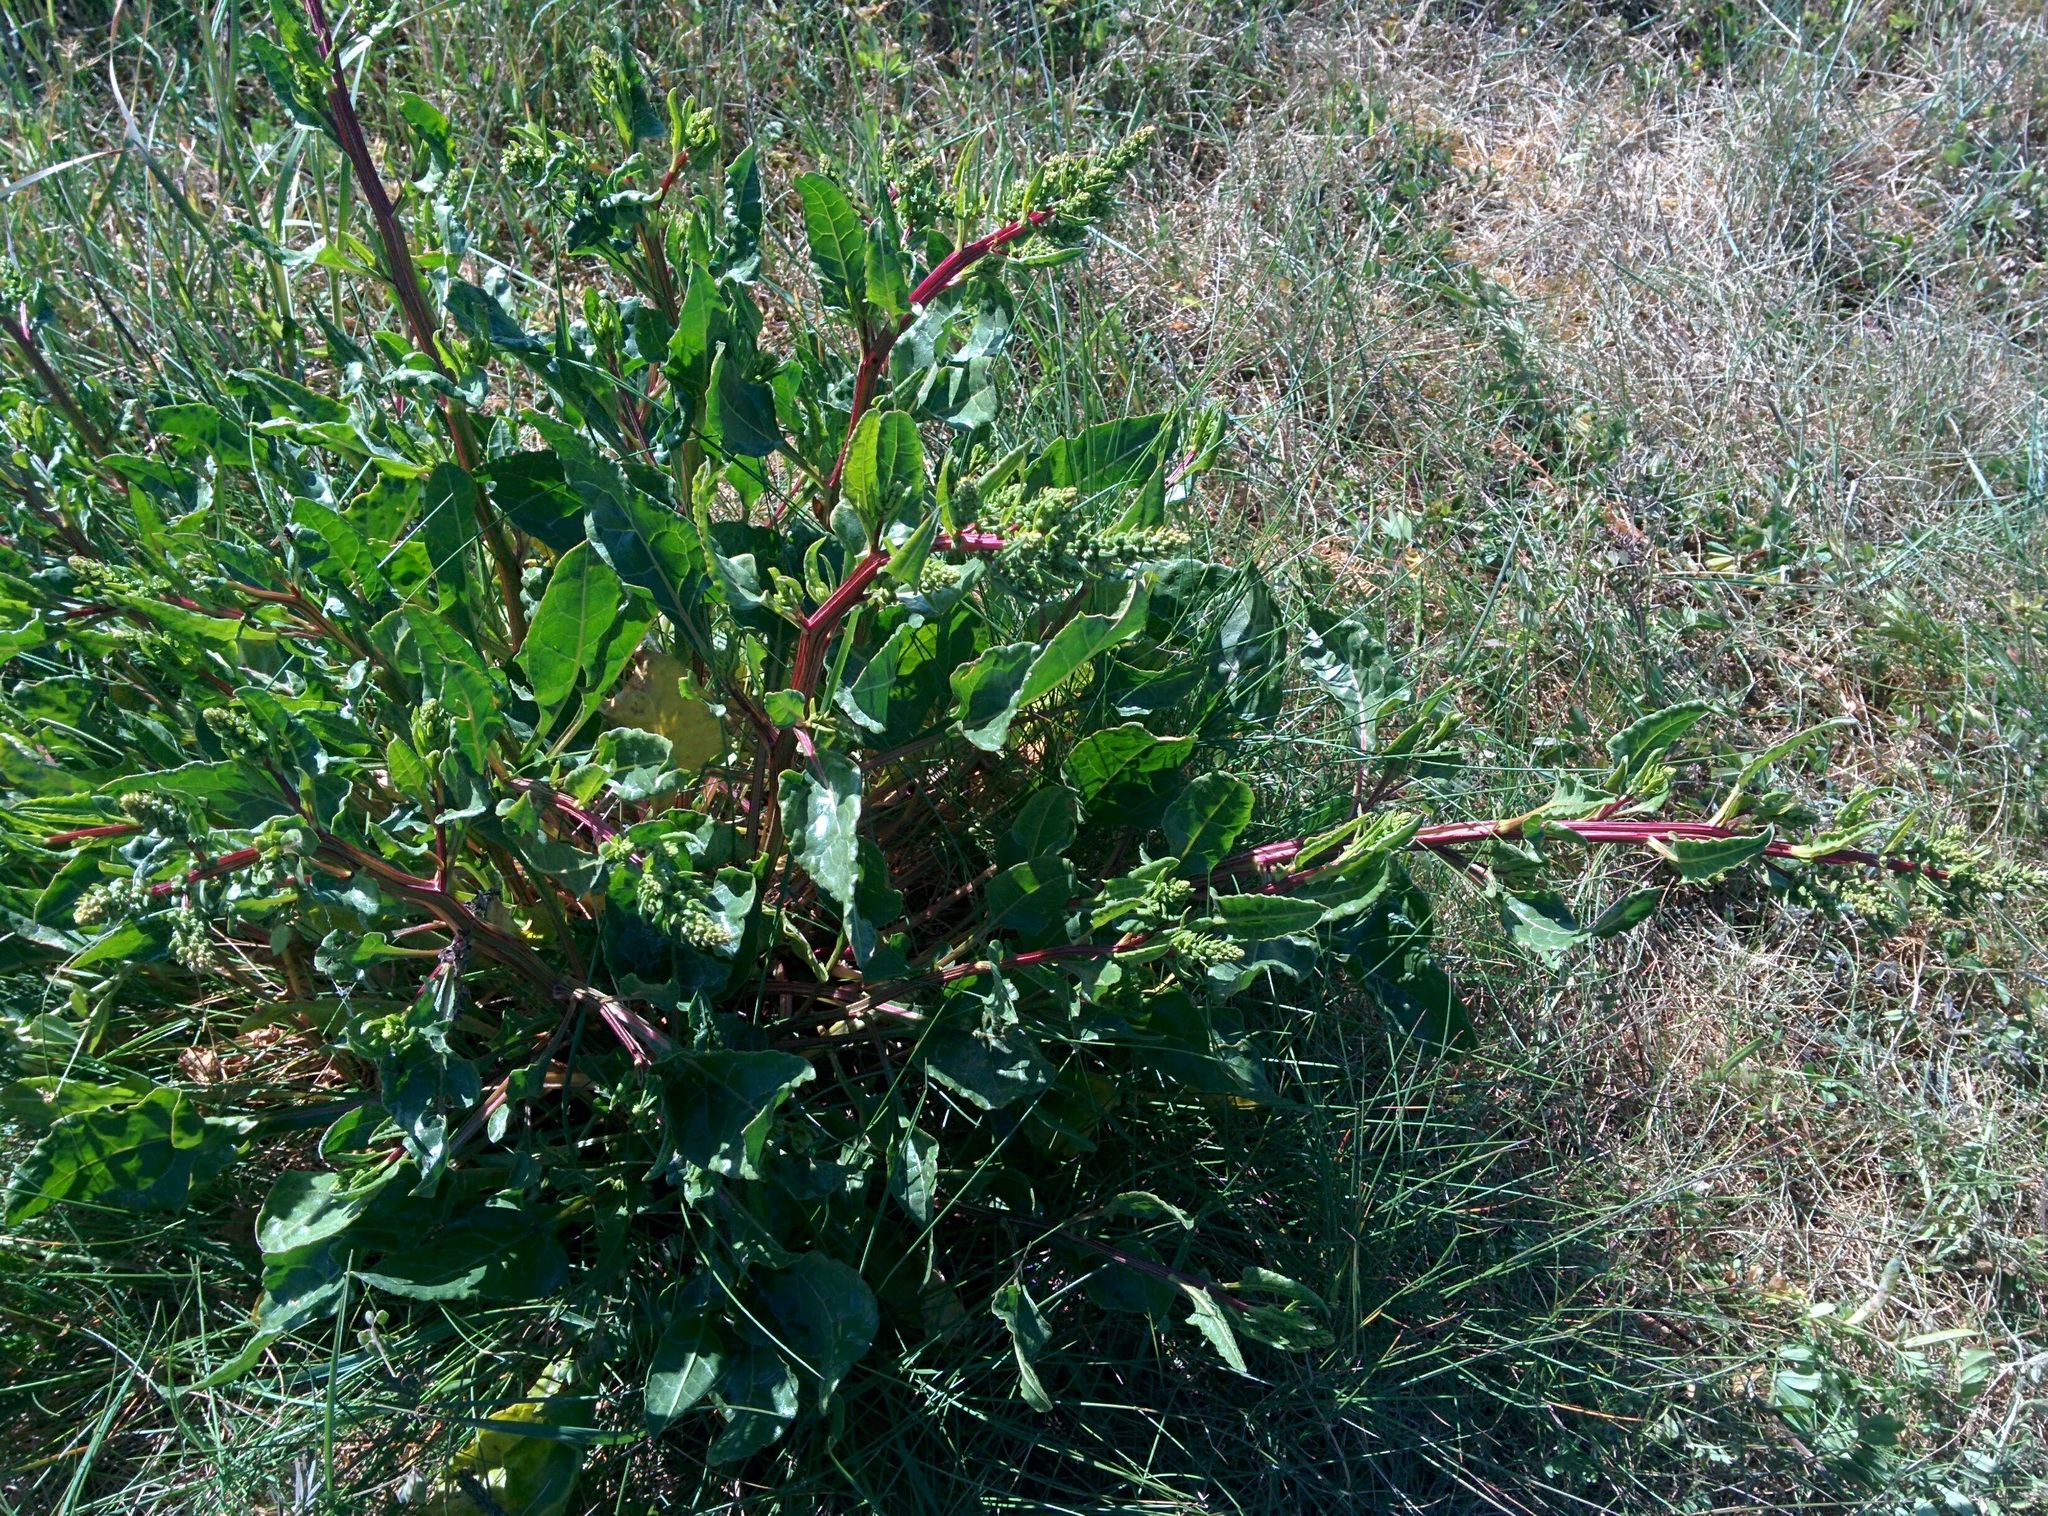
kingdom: Plantae
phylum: Tracheophyta
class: Magnoliopsida
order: Caryophyllales
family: Amaranthaceae
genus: Beta
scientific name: Beta vulgaris
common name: Beet
